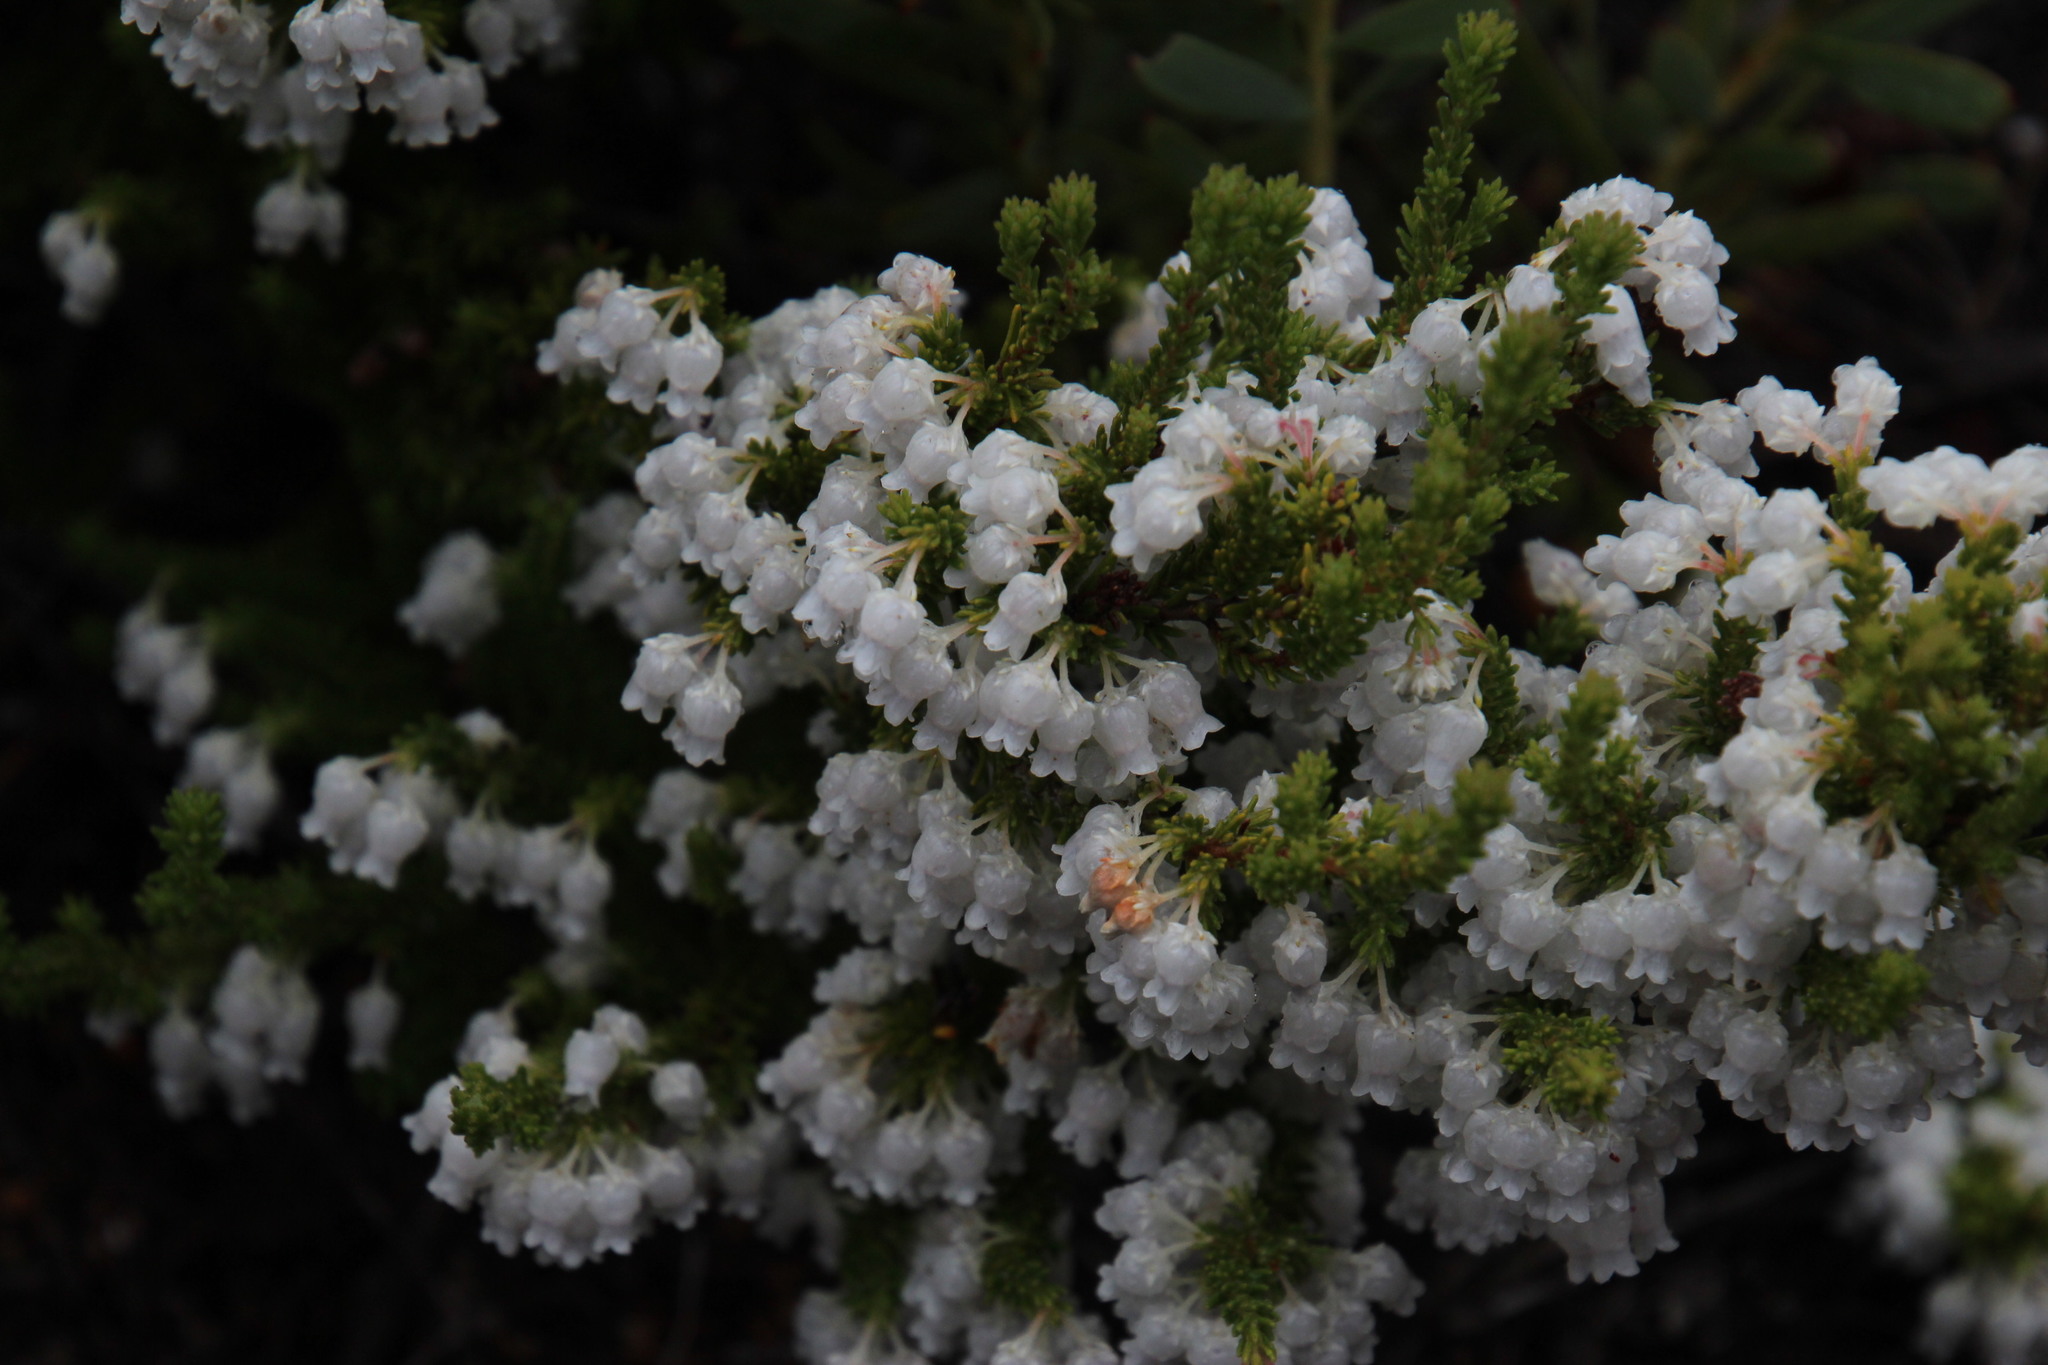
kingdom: Plantae
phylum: Tracheophyta
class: Magnoliopsida
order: Ericales
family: Ericaceae
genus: Erica
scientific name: Erica glomiflora
